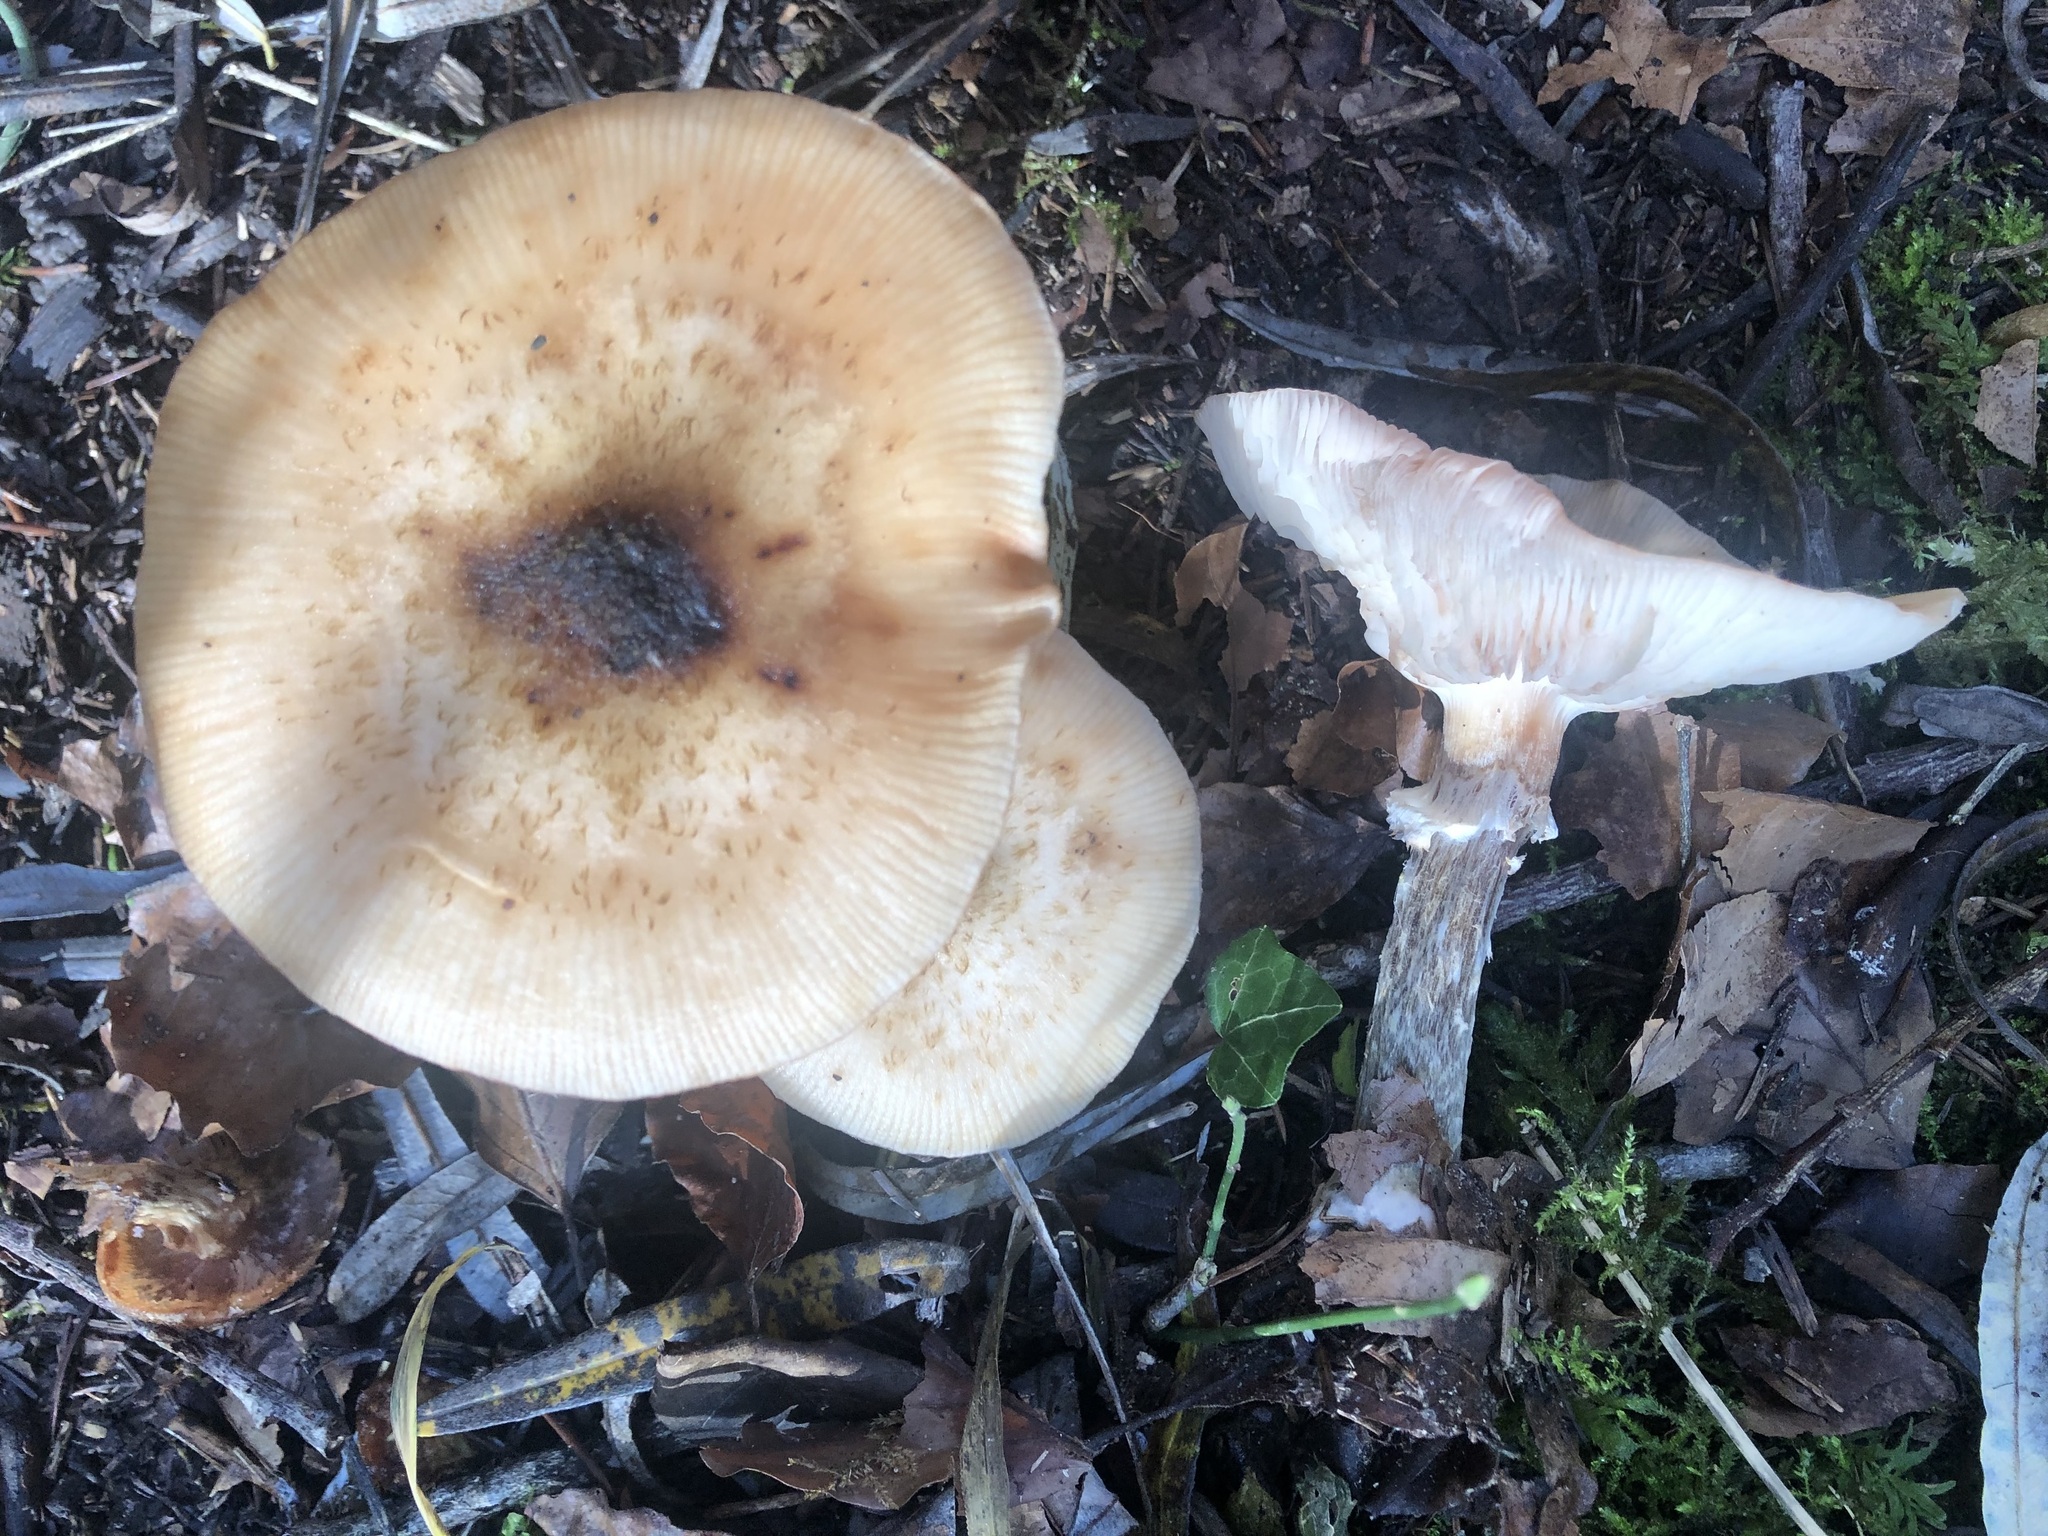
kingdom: Fungi
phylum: Basidiomycota
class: Agaricomycetes
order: Agaricales
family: Physalacriaceae
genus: Armillaria
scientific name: Armillaria cepistipes
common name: Mullet honey fungus
